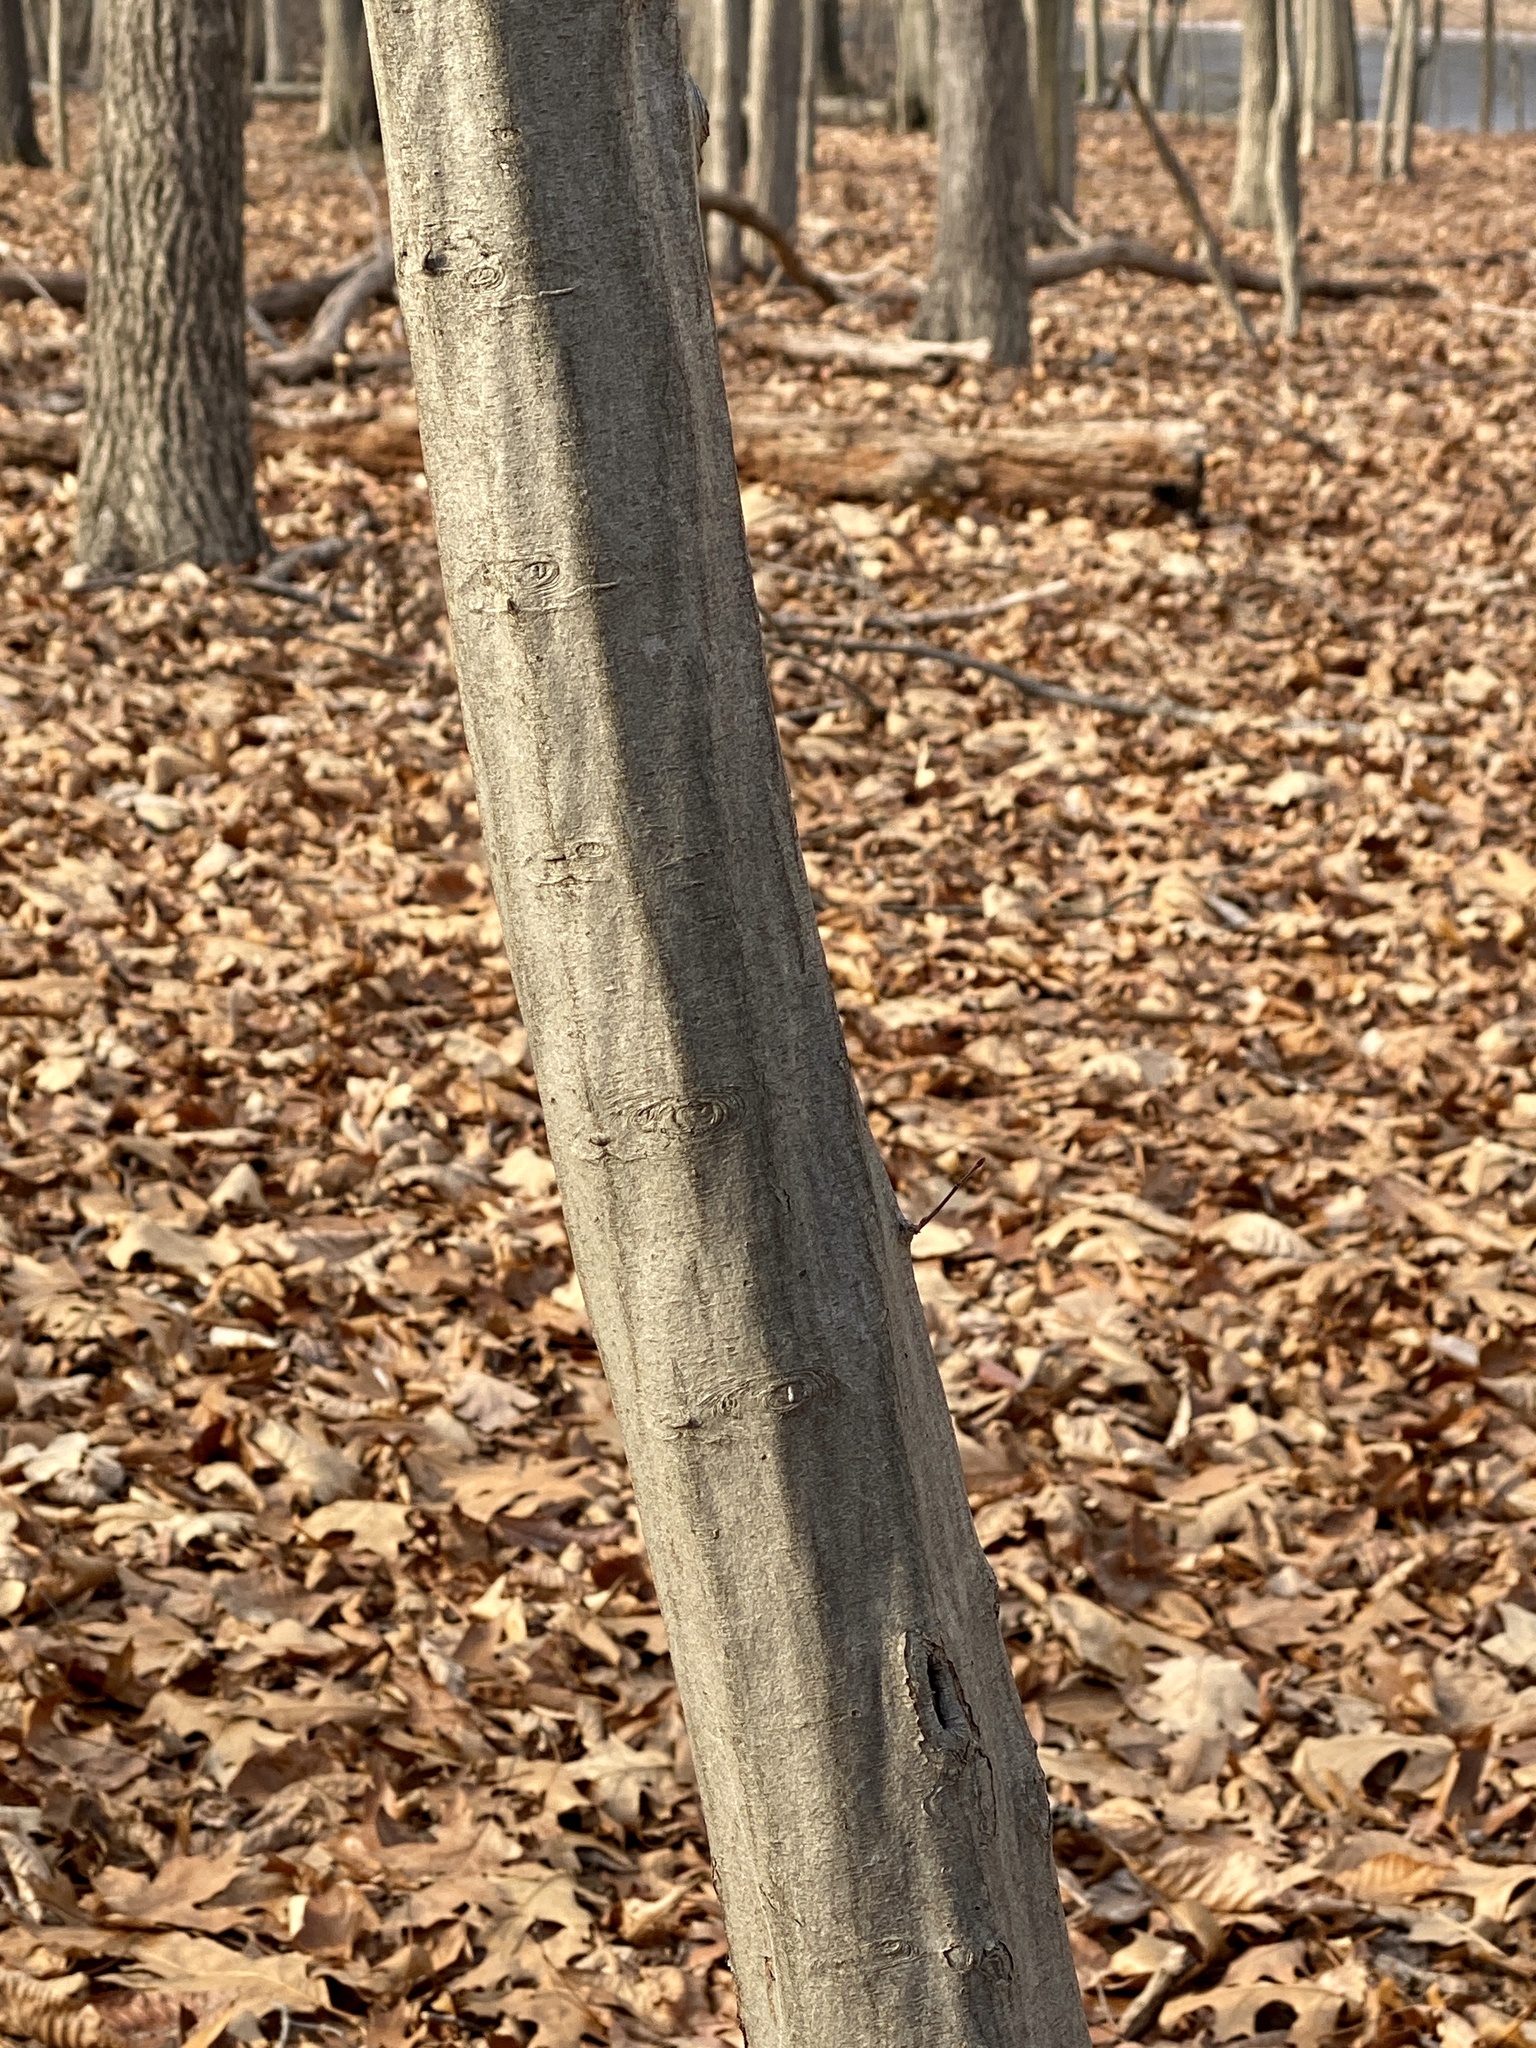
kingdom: Plantae
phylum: Tracheophyta
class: Magnoliopsida
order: Fagales
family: Betulaceae
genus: Carpinus
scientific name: Carpinus caroliniana
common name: American hornbeam
